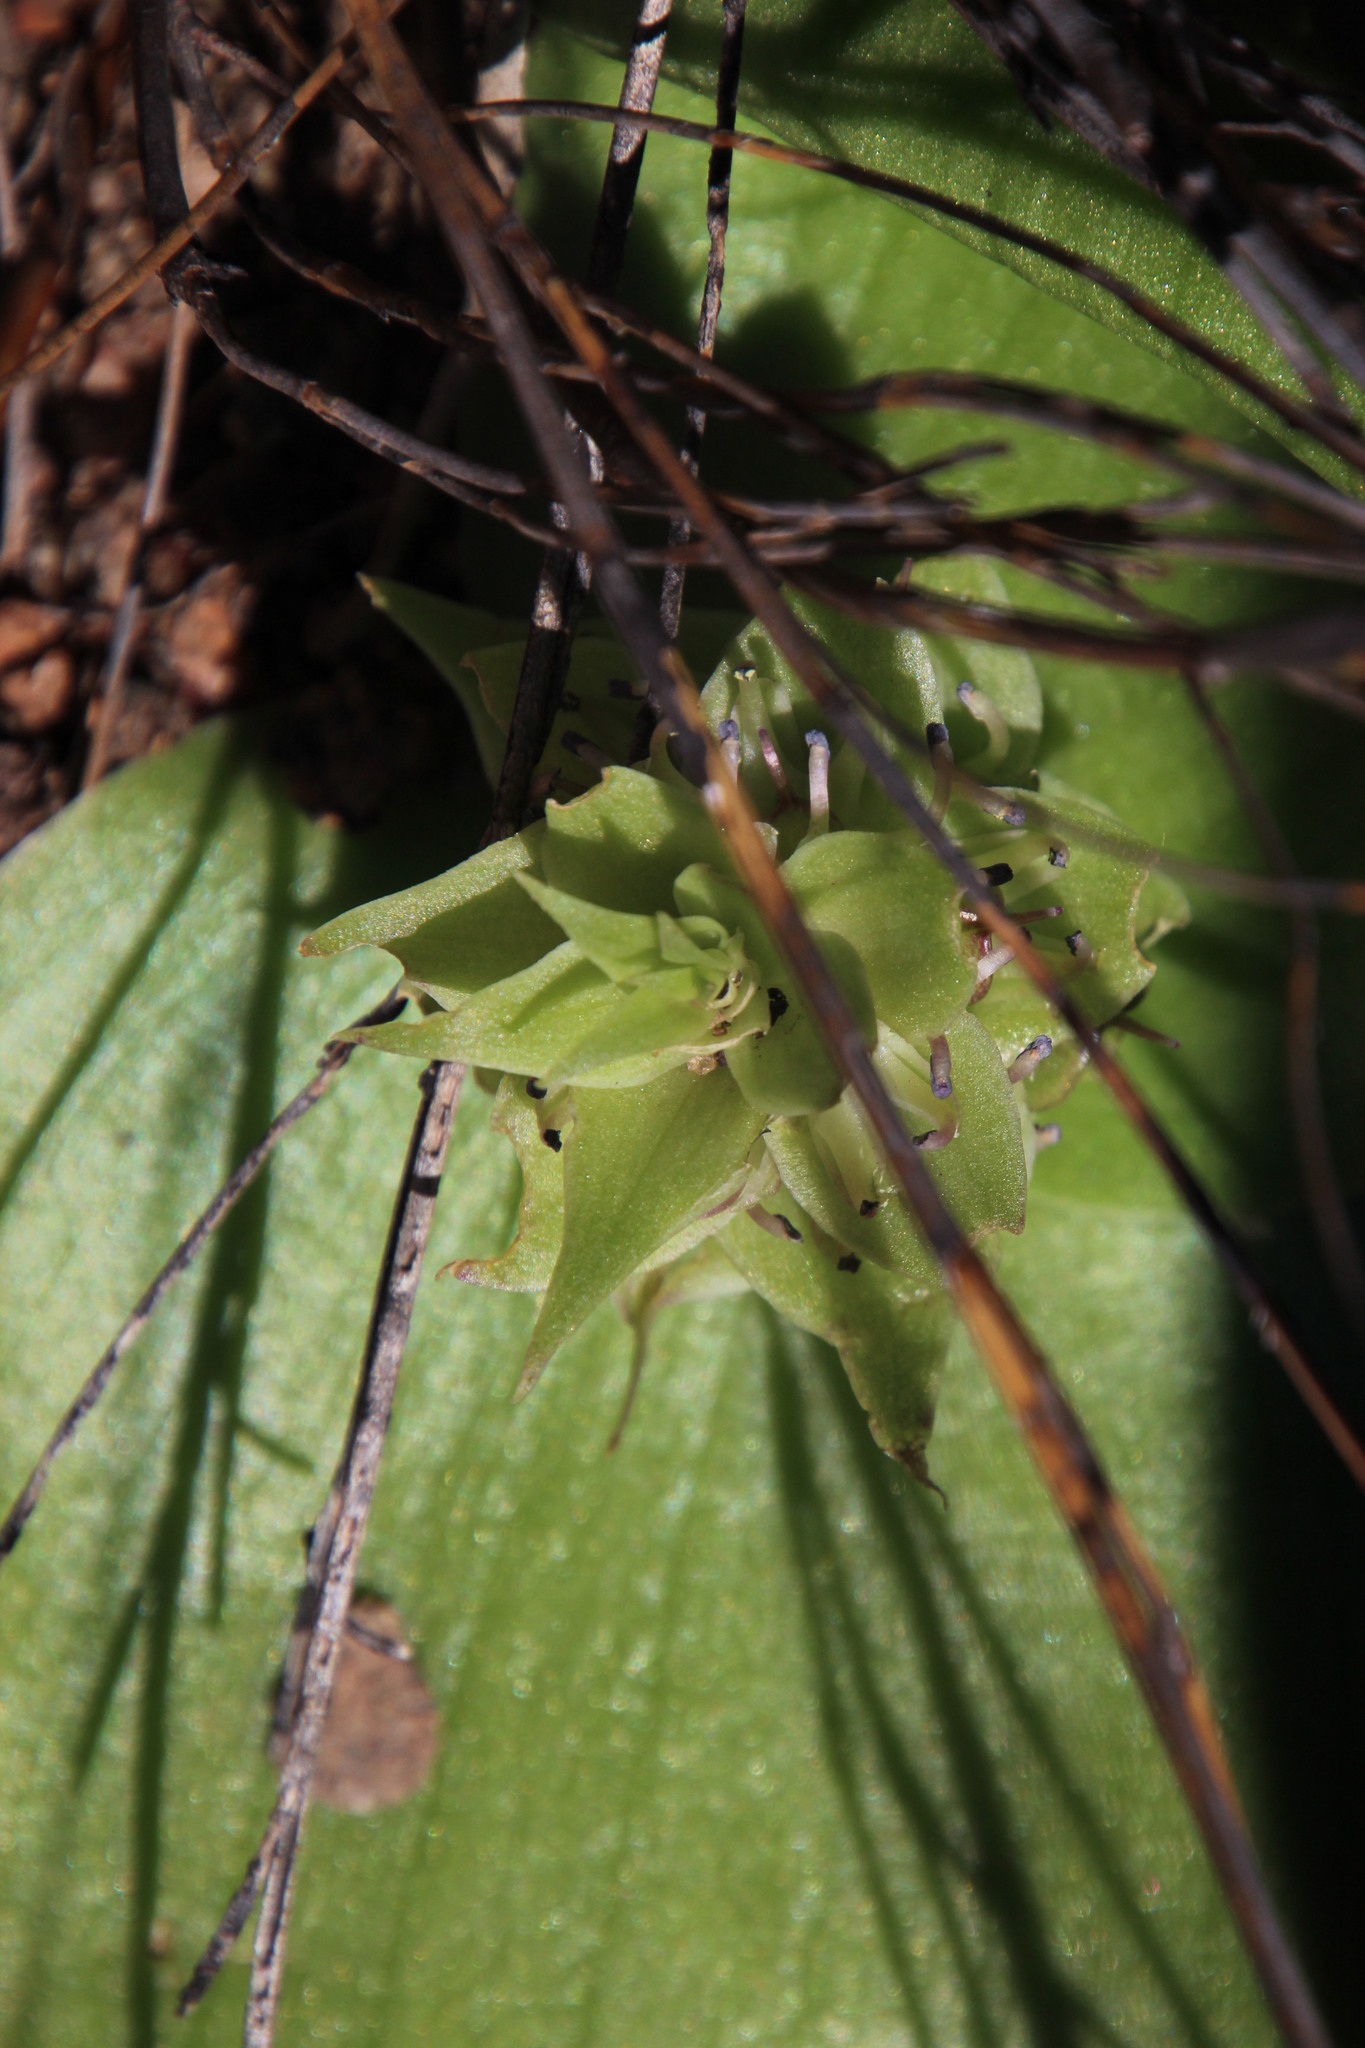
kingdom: Plantae
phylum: Tracheophyta
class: Liliopsida
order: Asparagales
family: Asparagaceae
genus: Massonia
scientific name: Massonia bifolia
